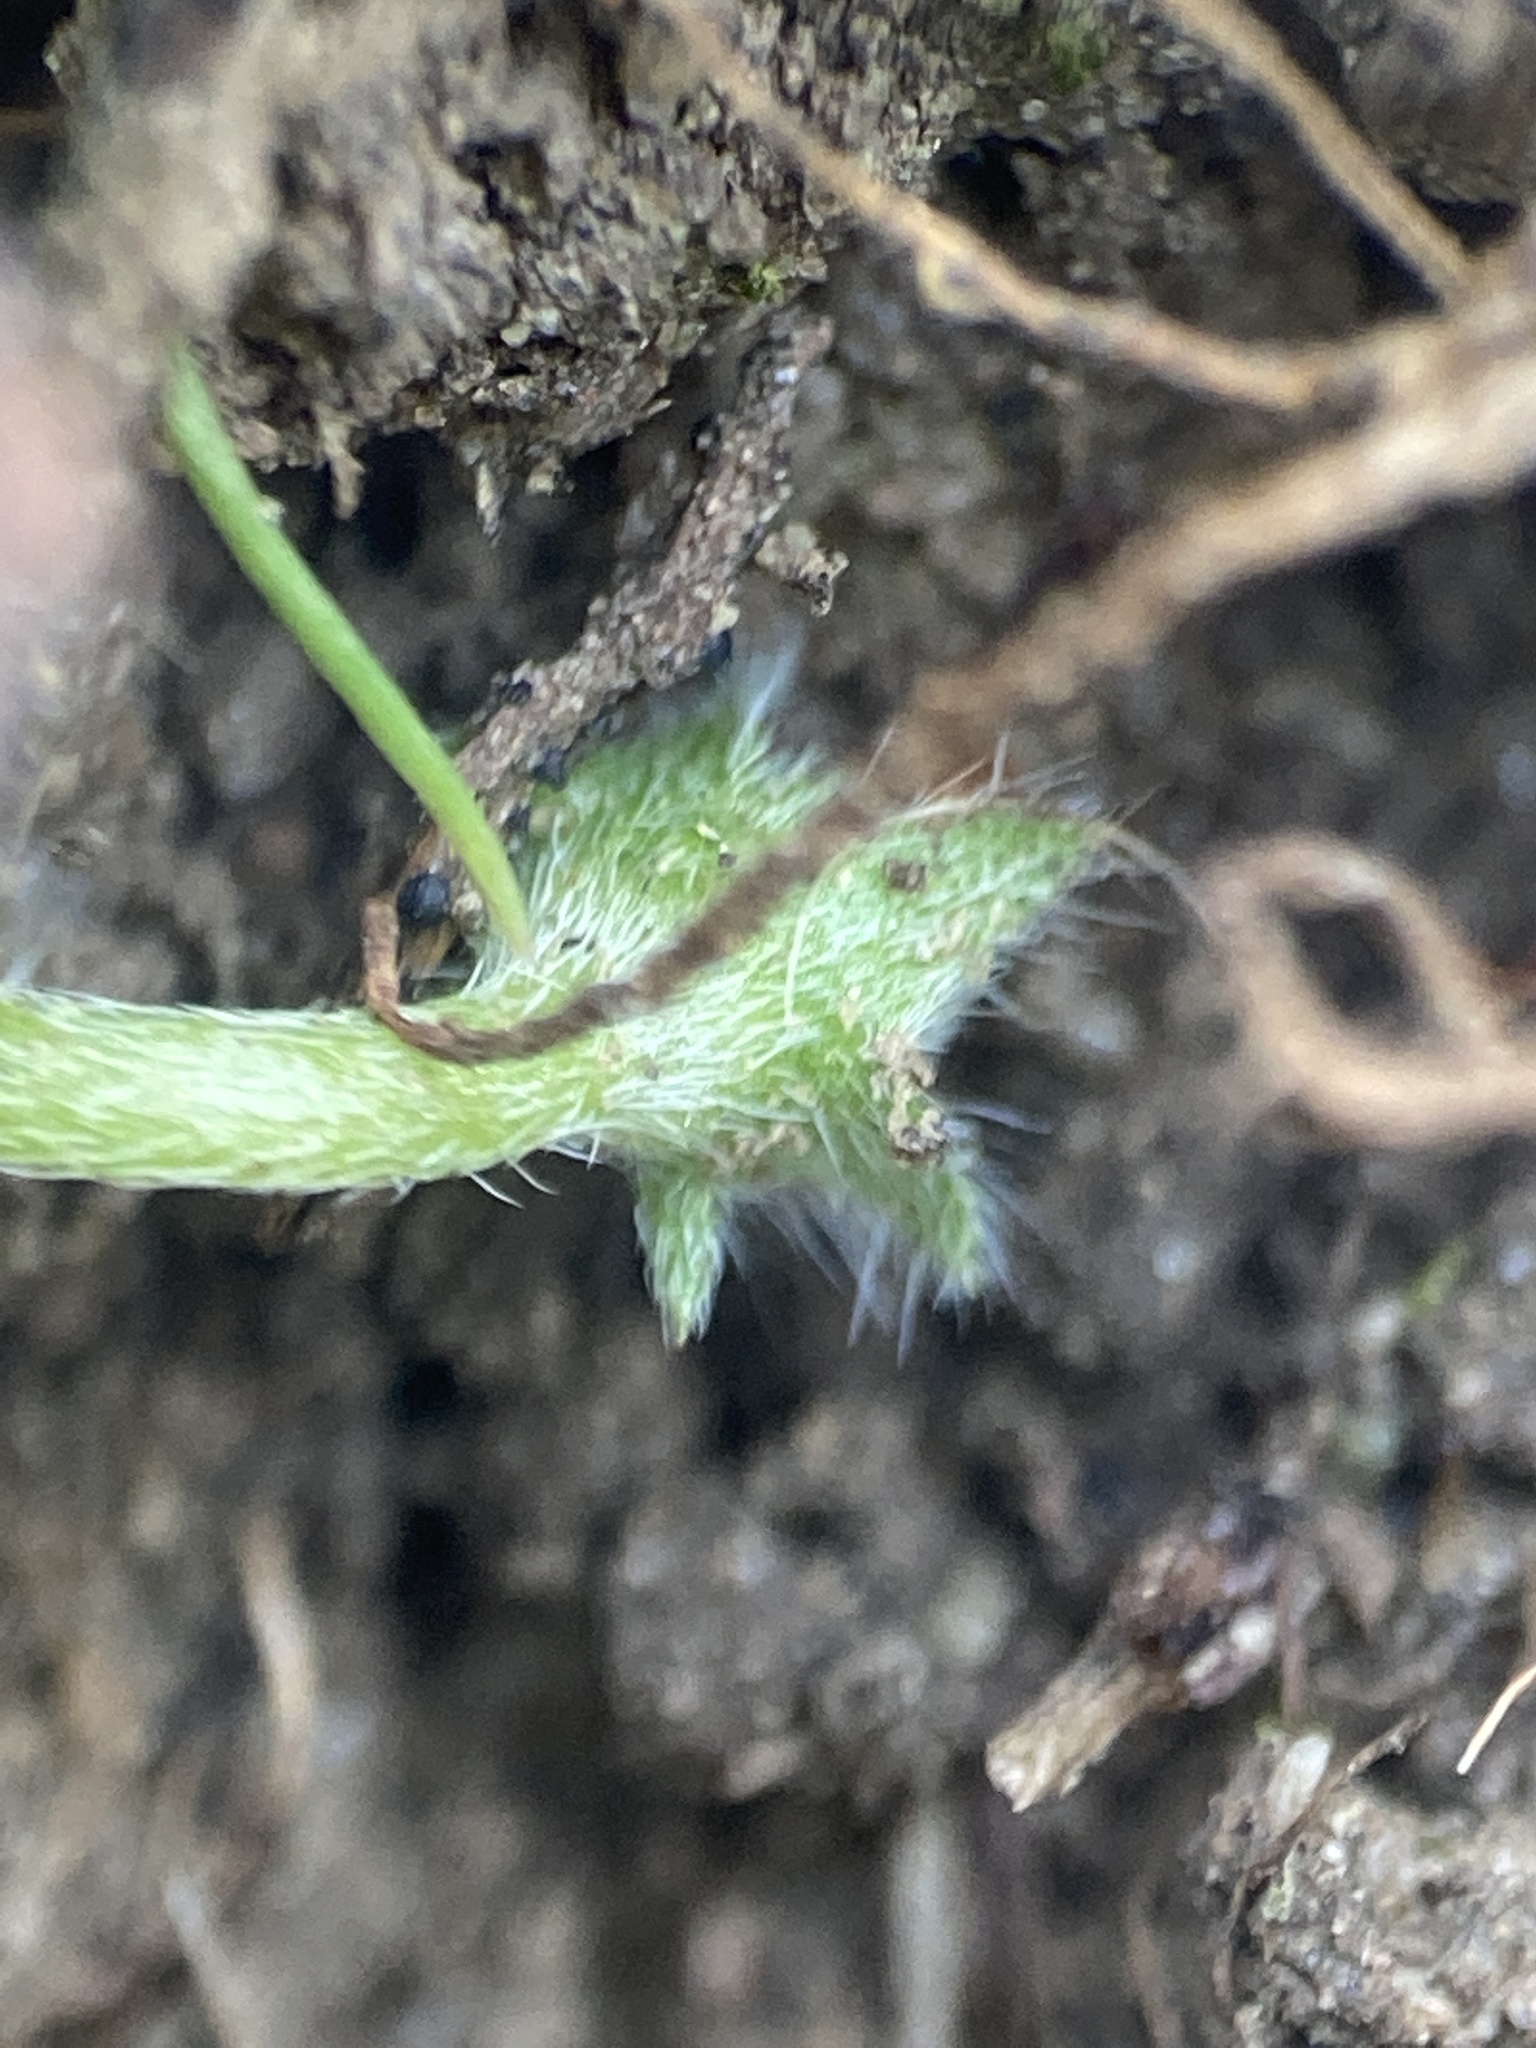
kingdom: Plantae
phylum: Tracheophyta
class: Magnoliopsida
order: Boraginales
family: Hydrophyllaceae
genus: Nemophila
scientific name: Nemophila pedunculata
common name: Little-foot baby-blue-eyes
